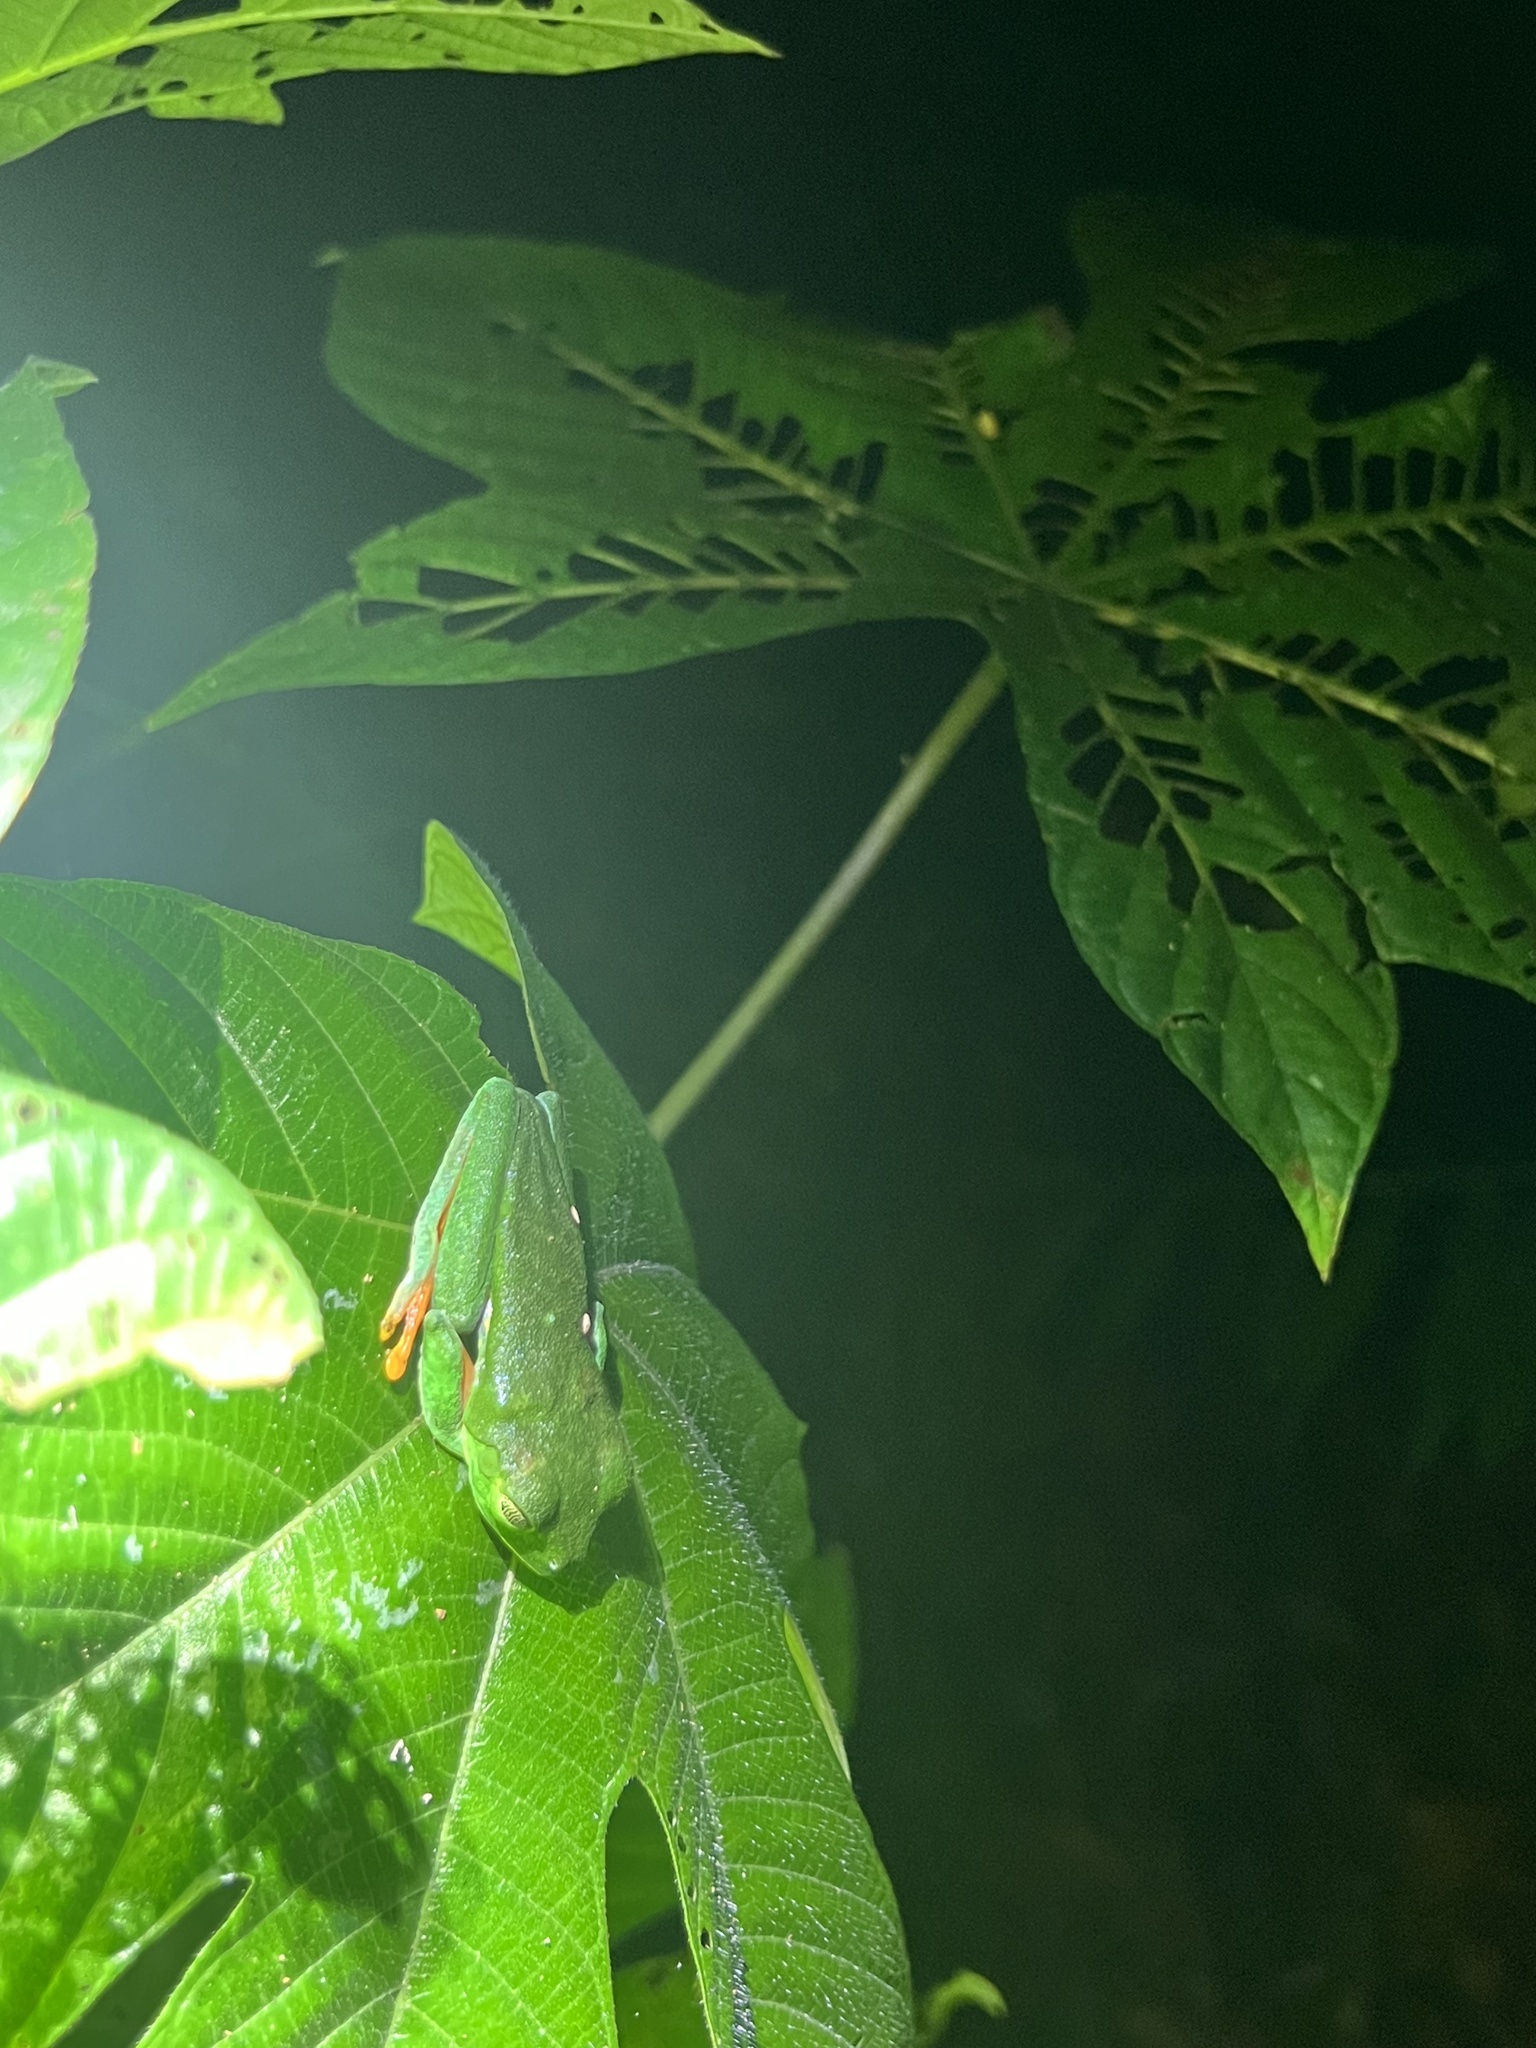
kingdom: Animalia
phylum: Chordata
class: Amphibia
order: Anura
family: Phyllomedusidae
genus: Agalychnis
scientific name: Agalychnis callidryas
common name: Red-eyed treefrog
